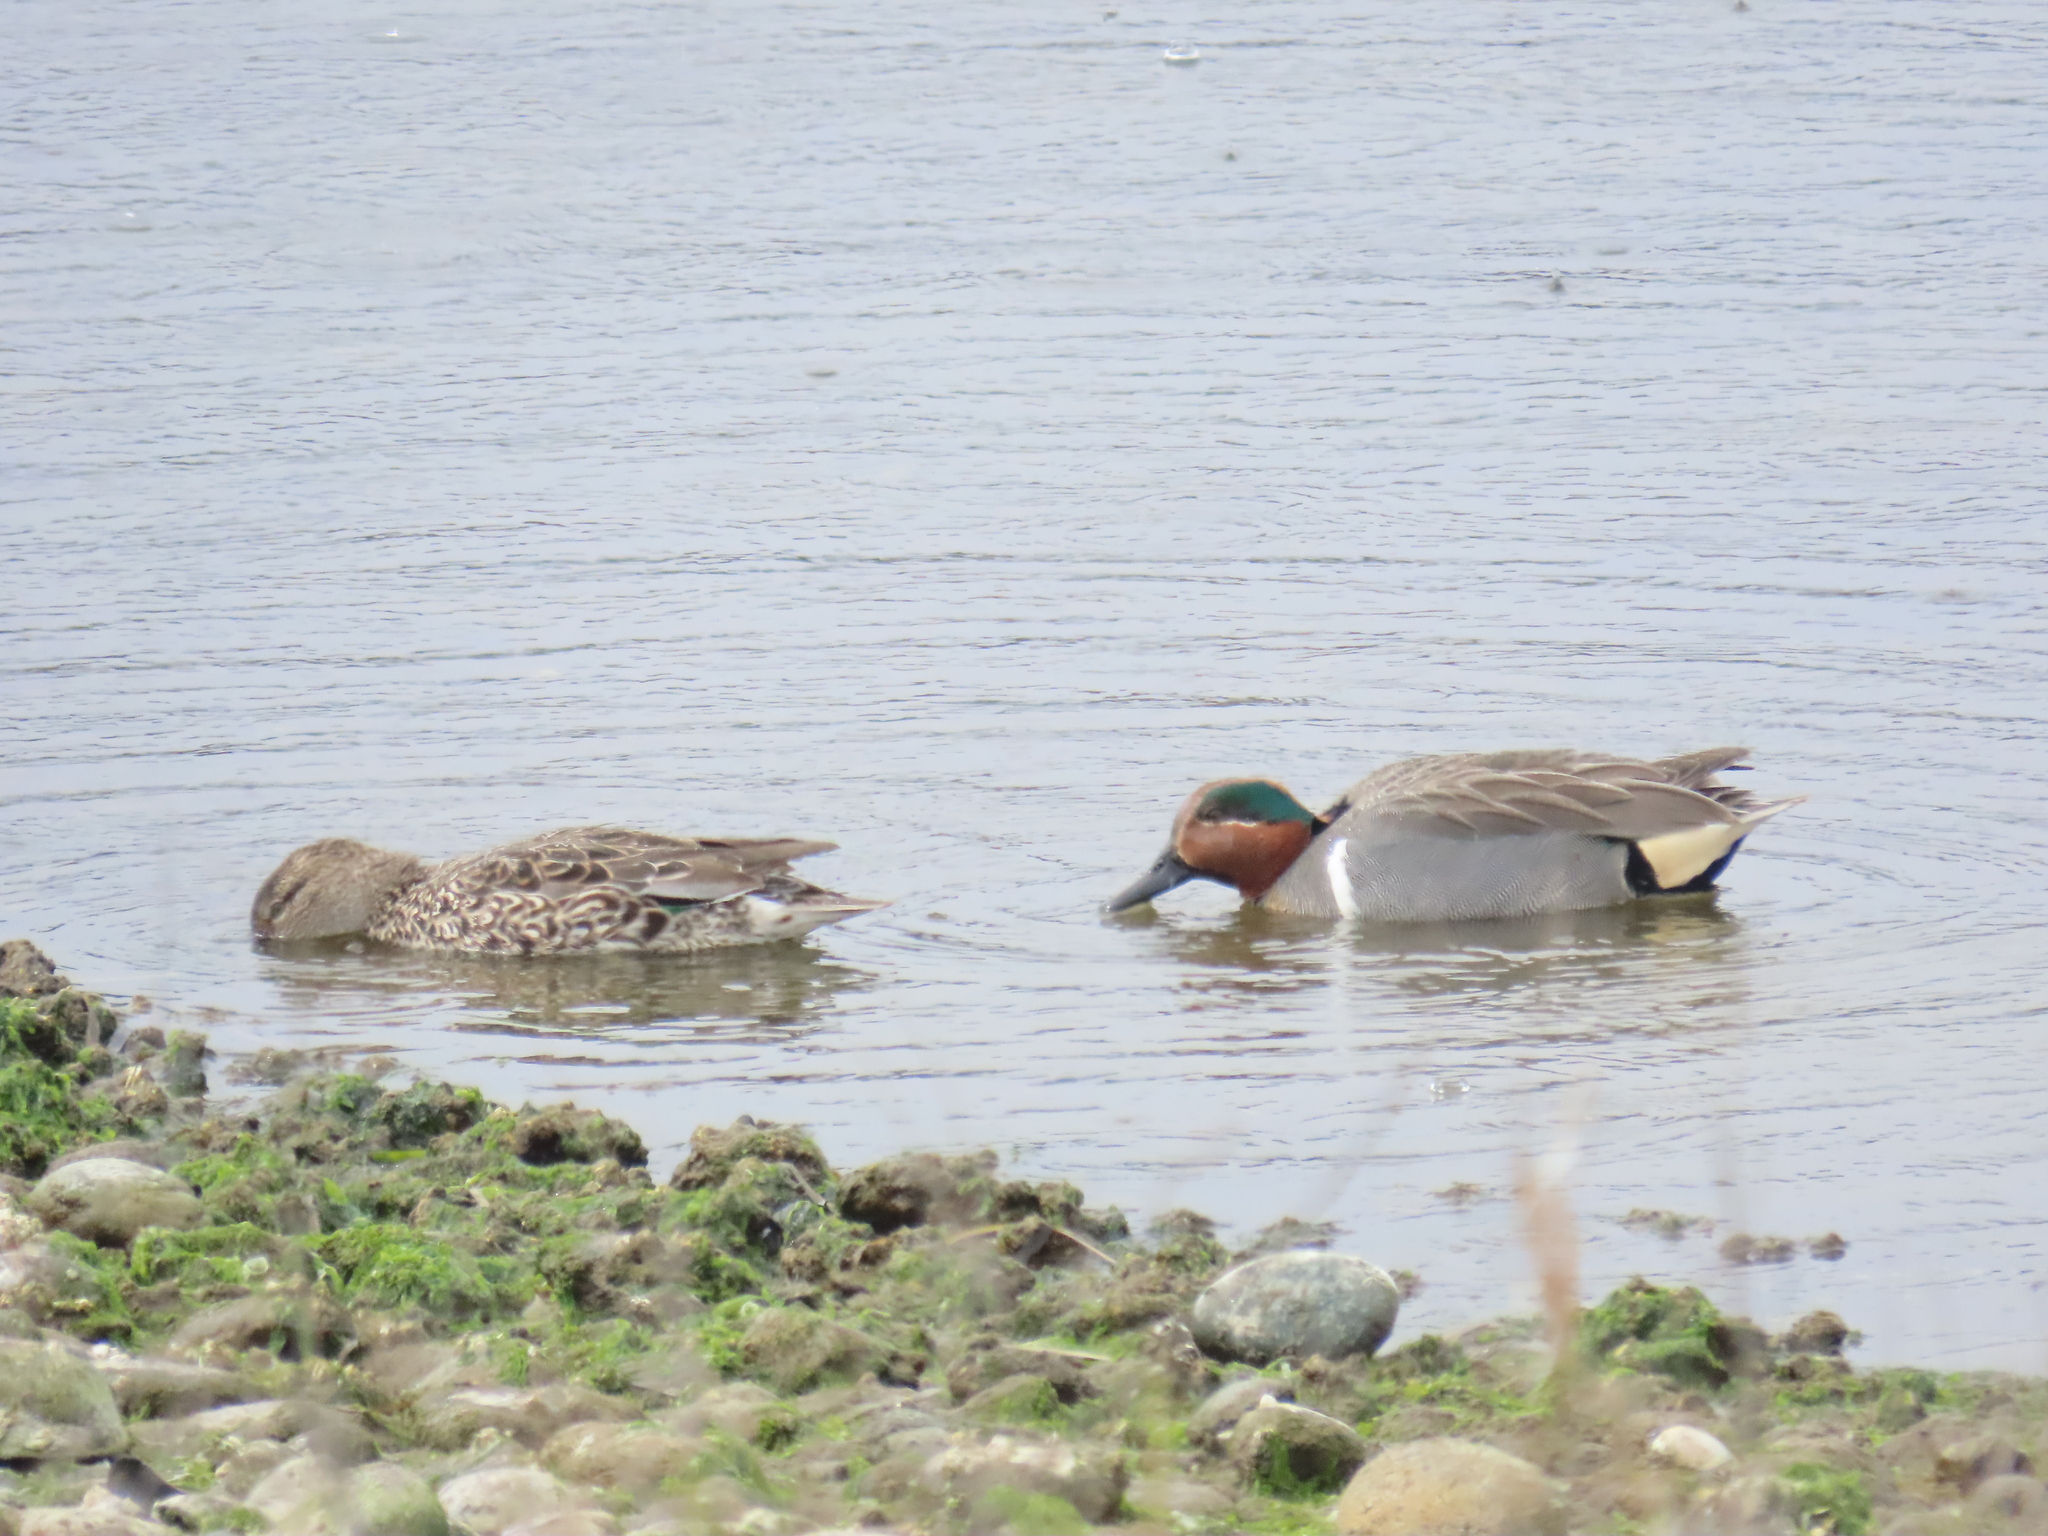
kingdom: Animalia
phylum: Chordata
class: Aves
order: Anseriformes
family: Anatidae
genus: Anas
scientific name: Anas crecca
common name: Eurasian teal
